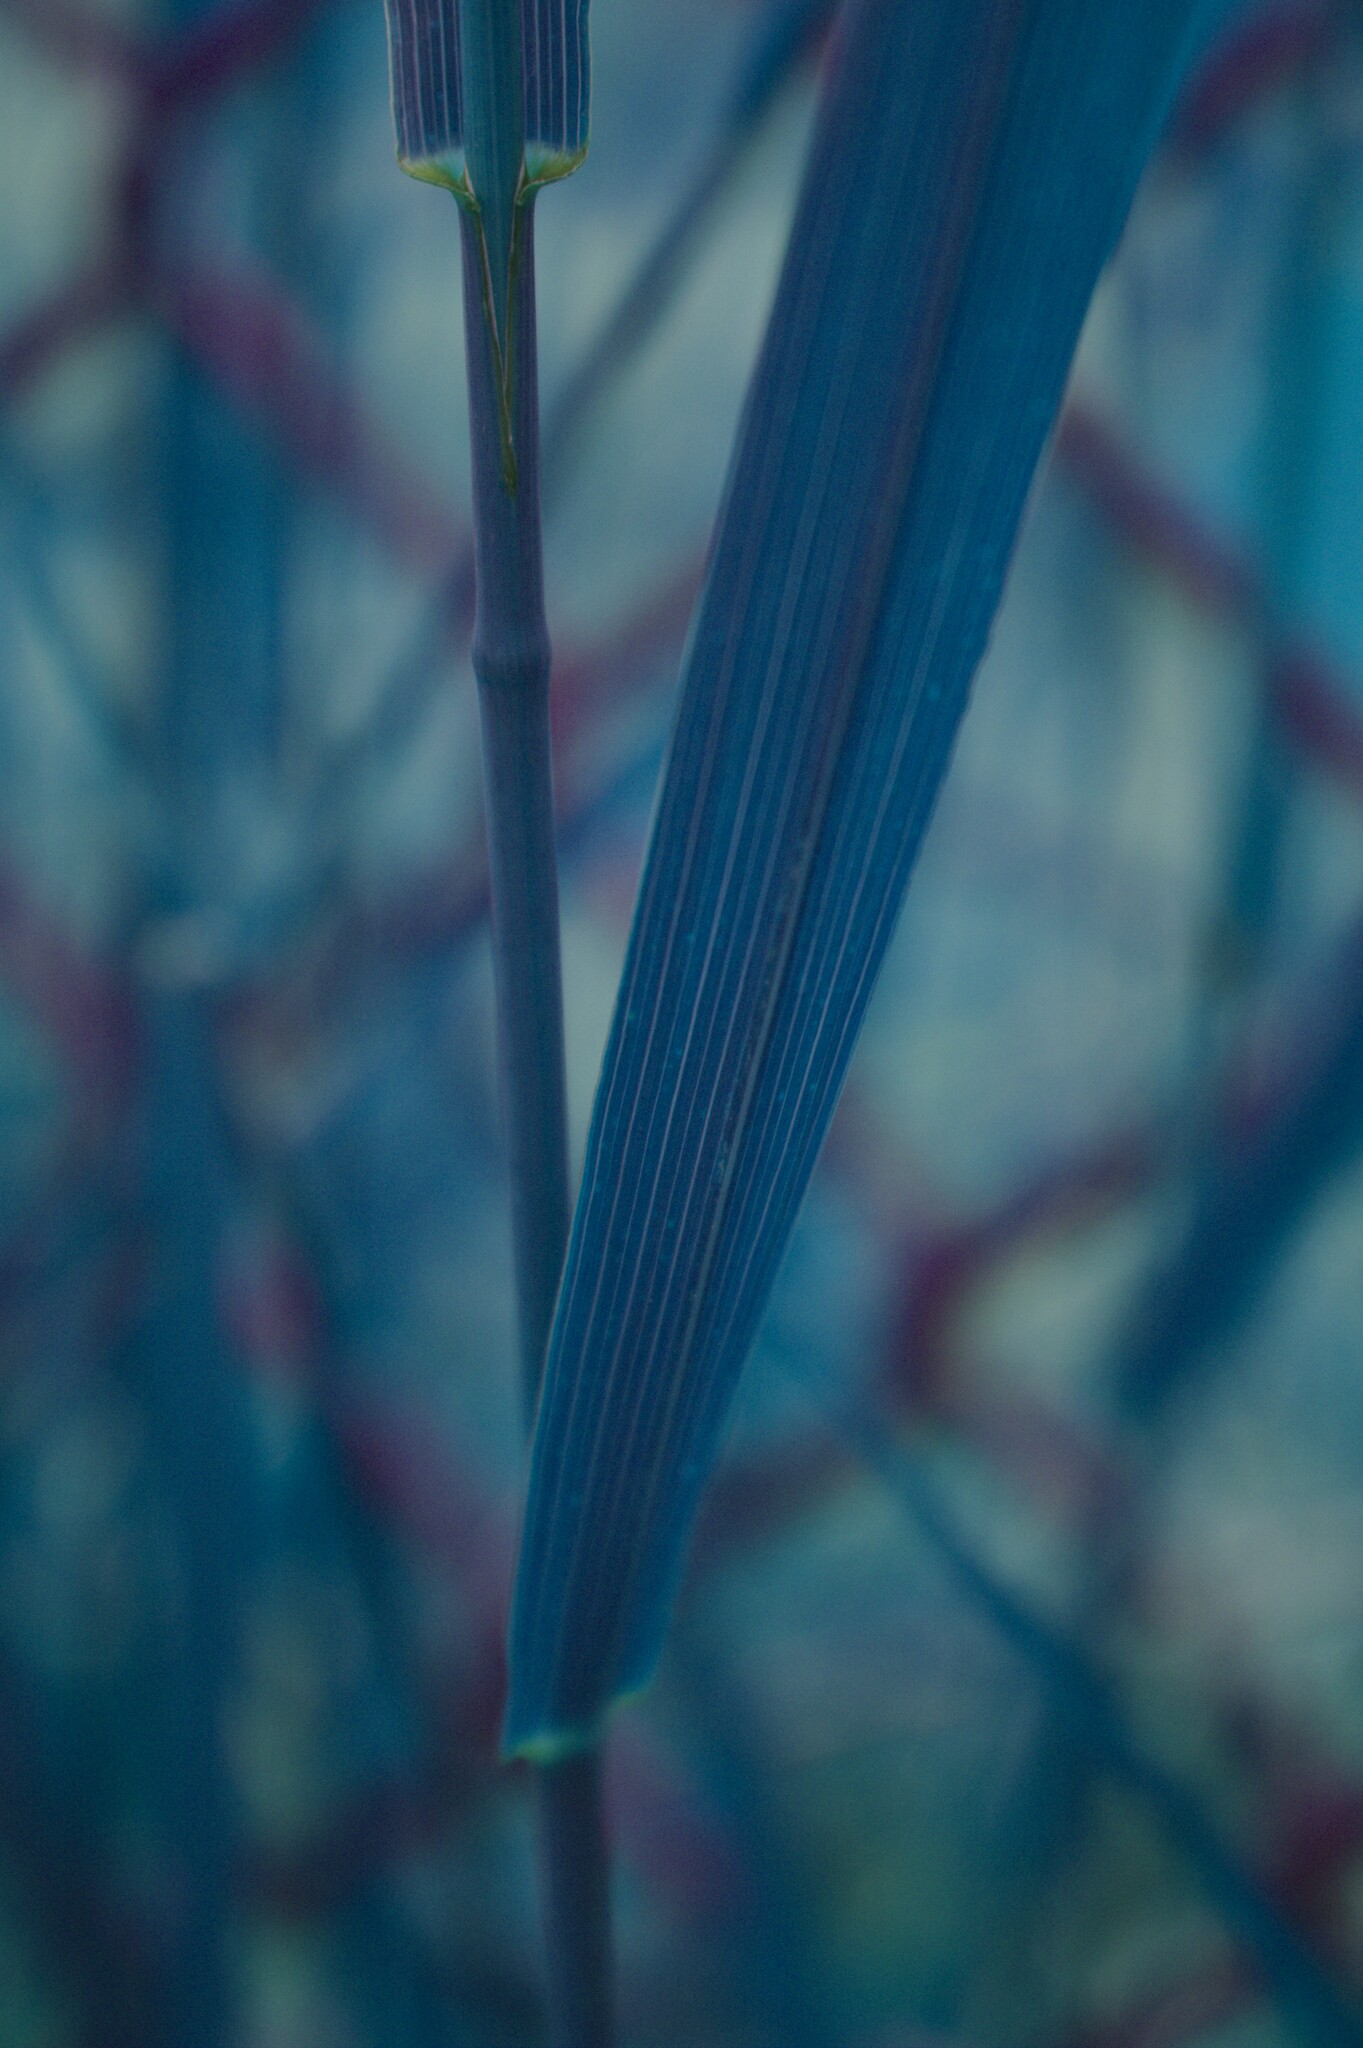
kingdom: Plantae
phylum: Tracheophyta
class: Liliopsida
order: Poales
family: Poaceae
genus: Bromus
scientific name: Bromus inermis
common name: Smooth brome
